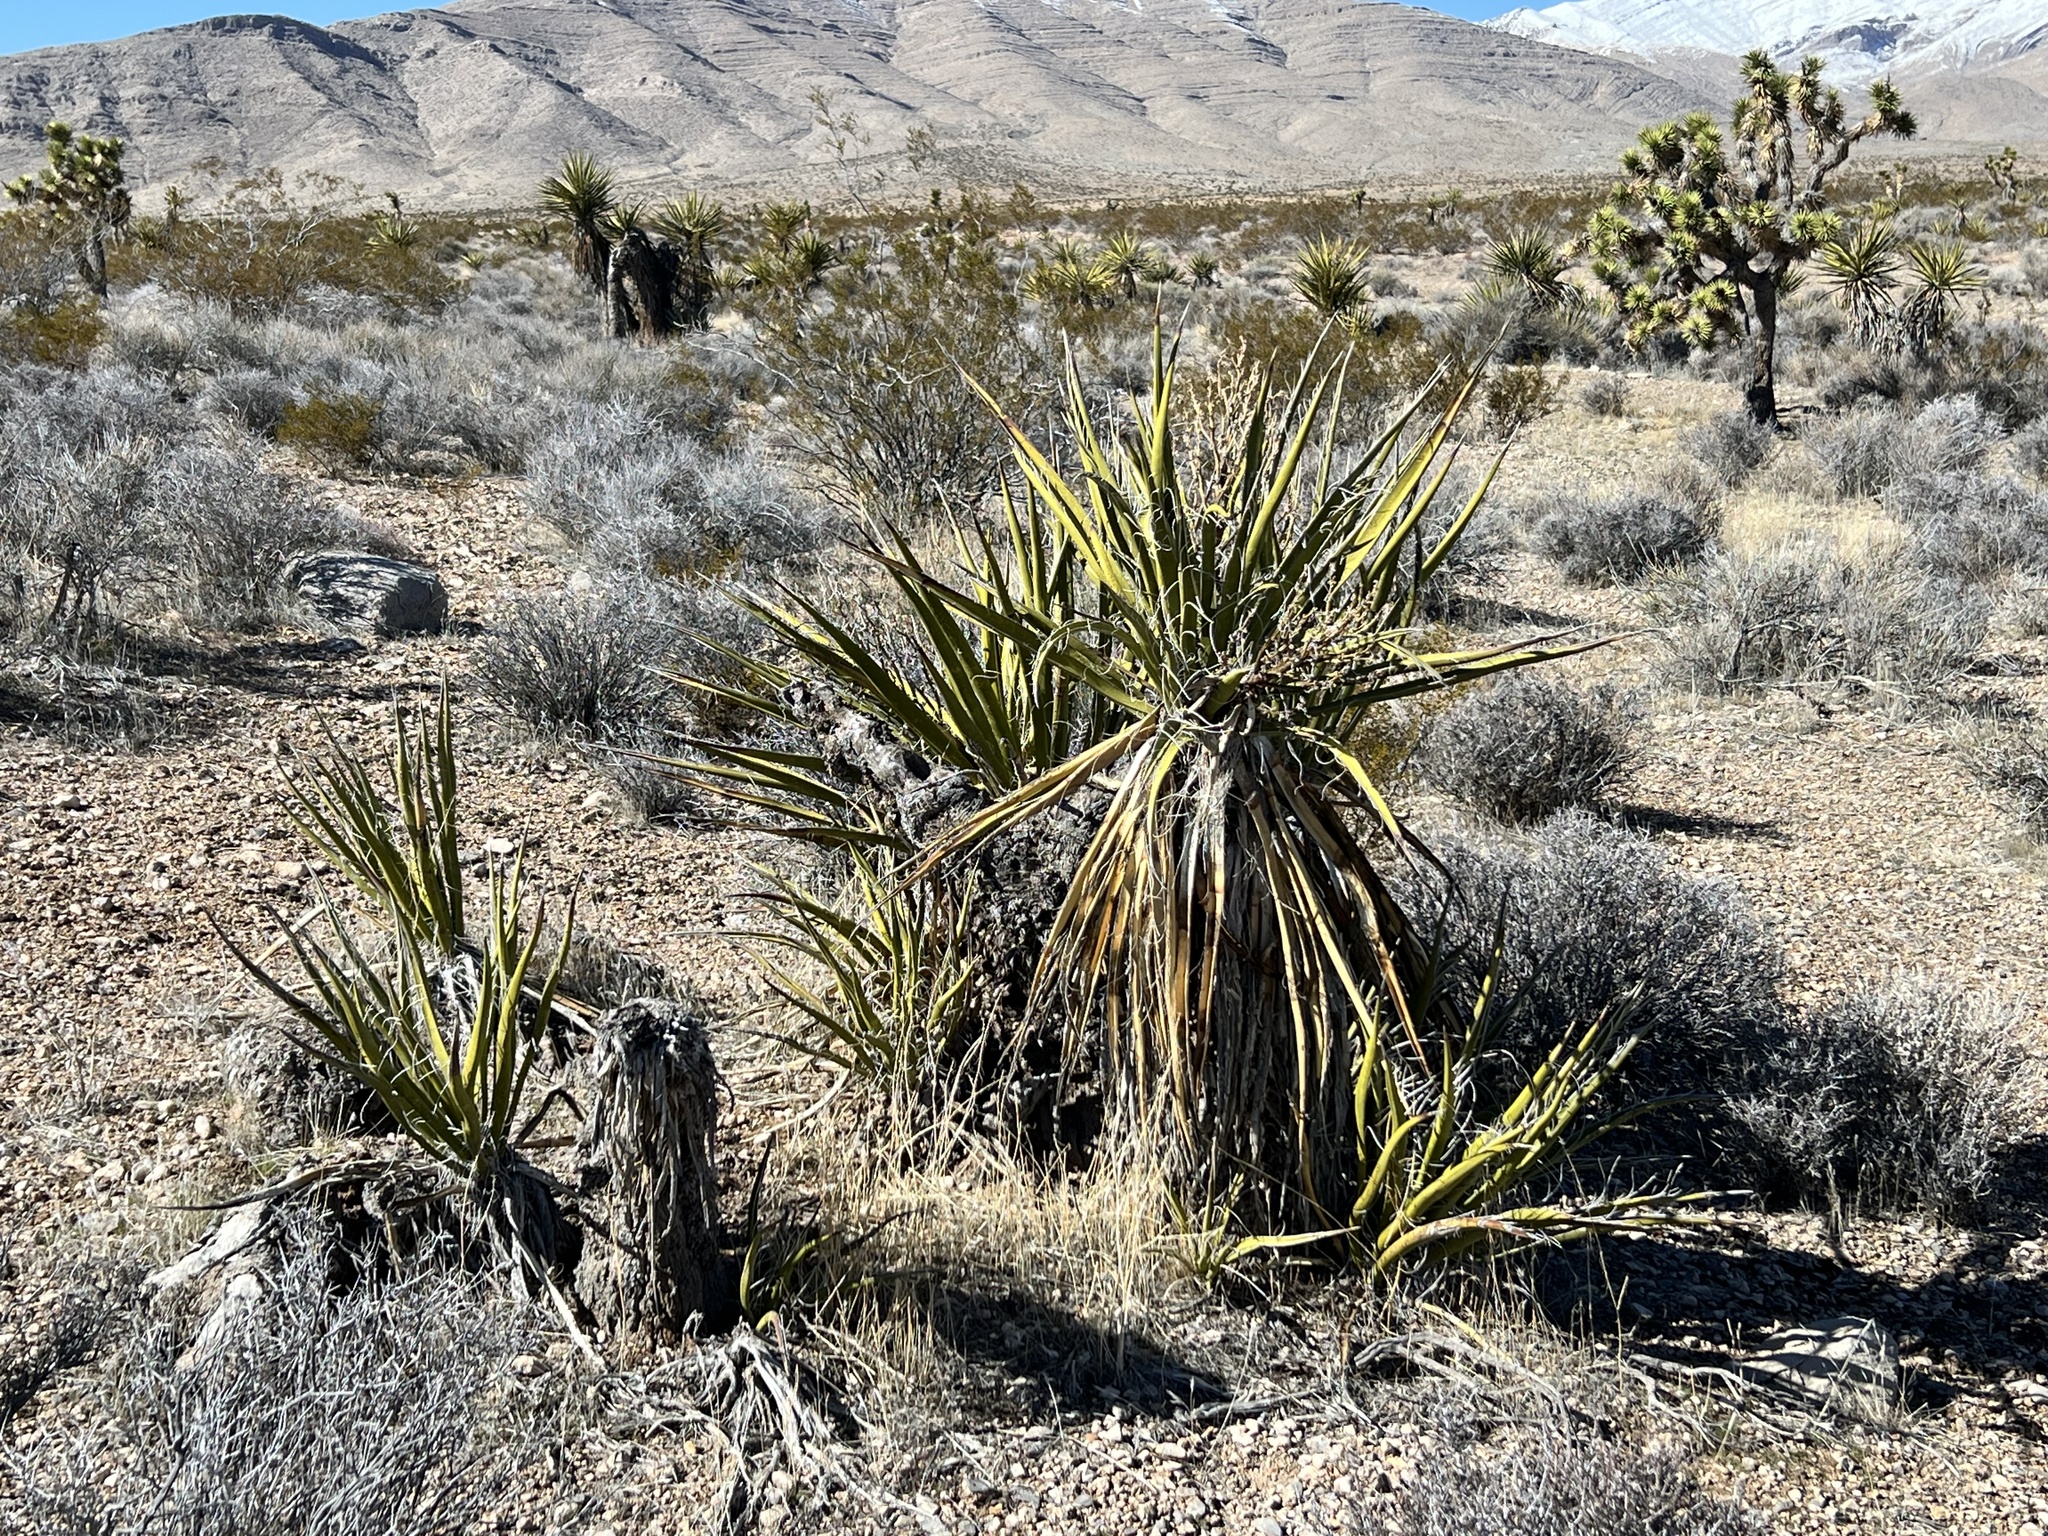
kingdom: Plantae
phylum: Tracheophyta
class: Liliopsida
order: Asparagales
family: Asparagaceae
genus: Yucca
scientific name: Yucca schidigera
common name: Mojave yucca
